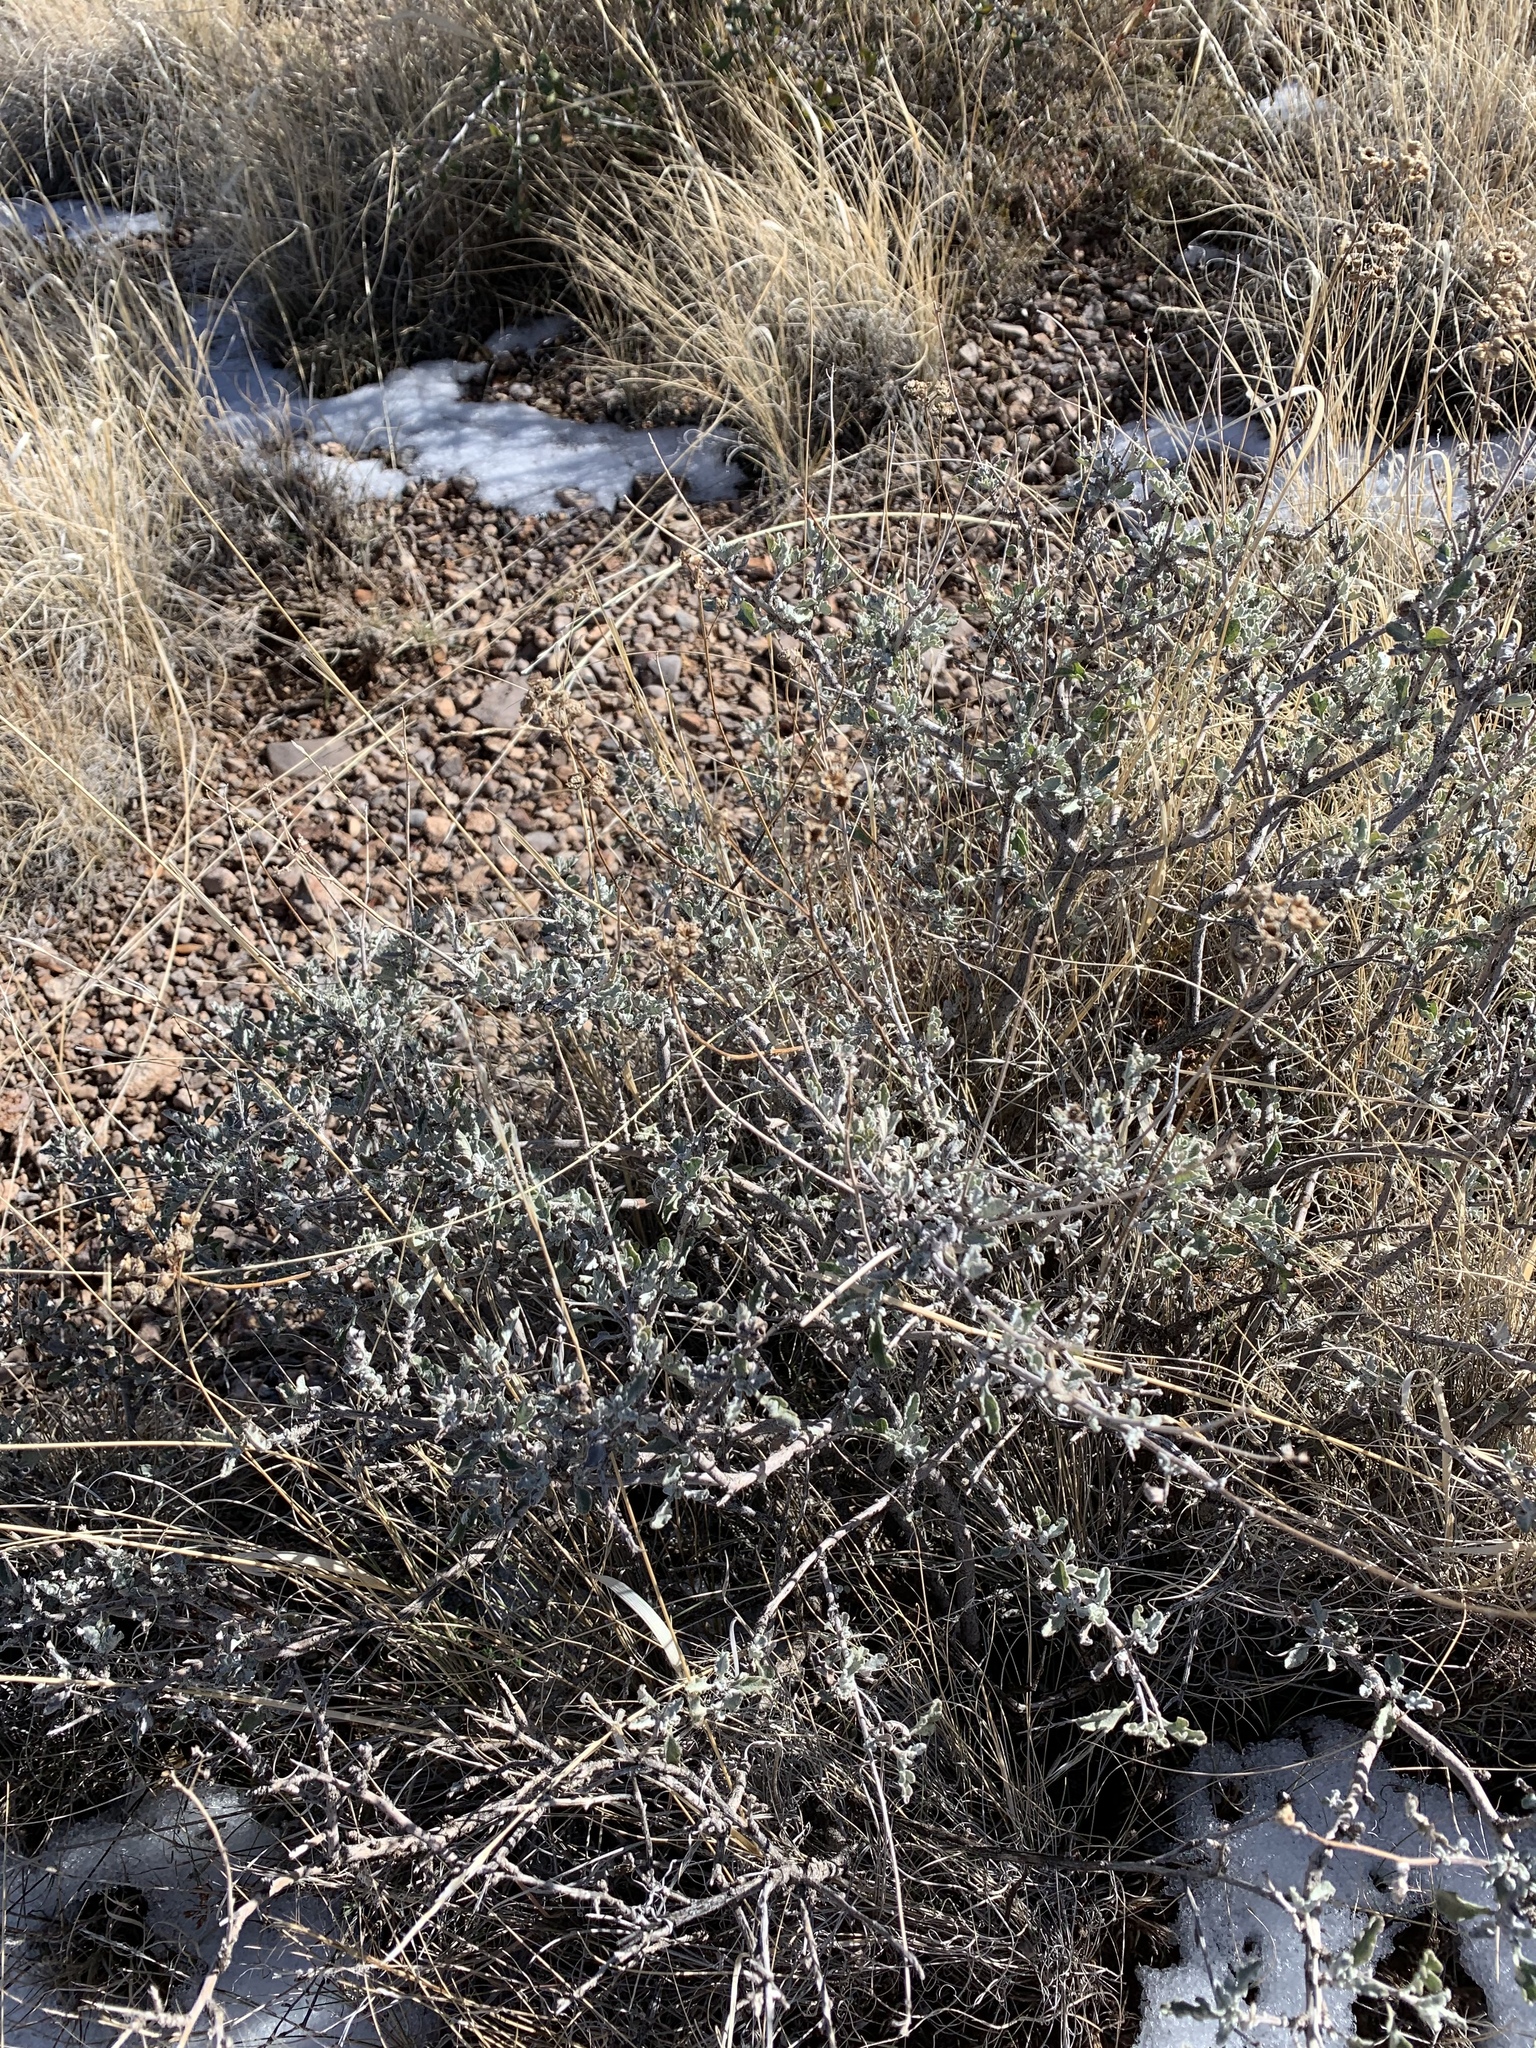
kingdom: Plantae
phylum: Tracheophyta
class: Magnoliopsida
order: Asterales
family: Asteraceae
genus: Parthenium
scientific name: Parthenium incanum
